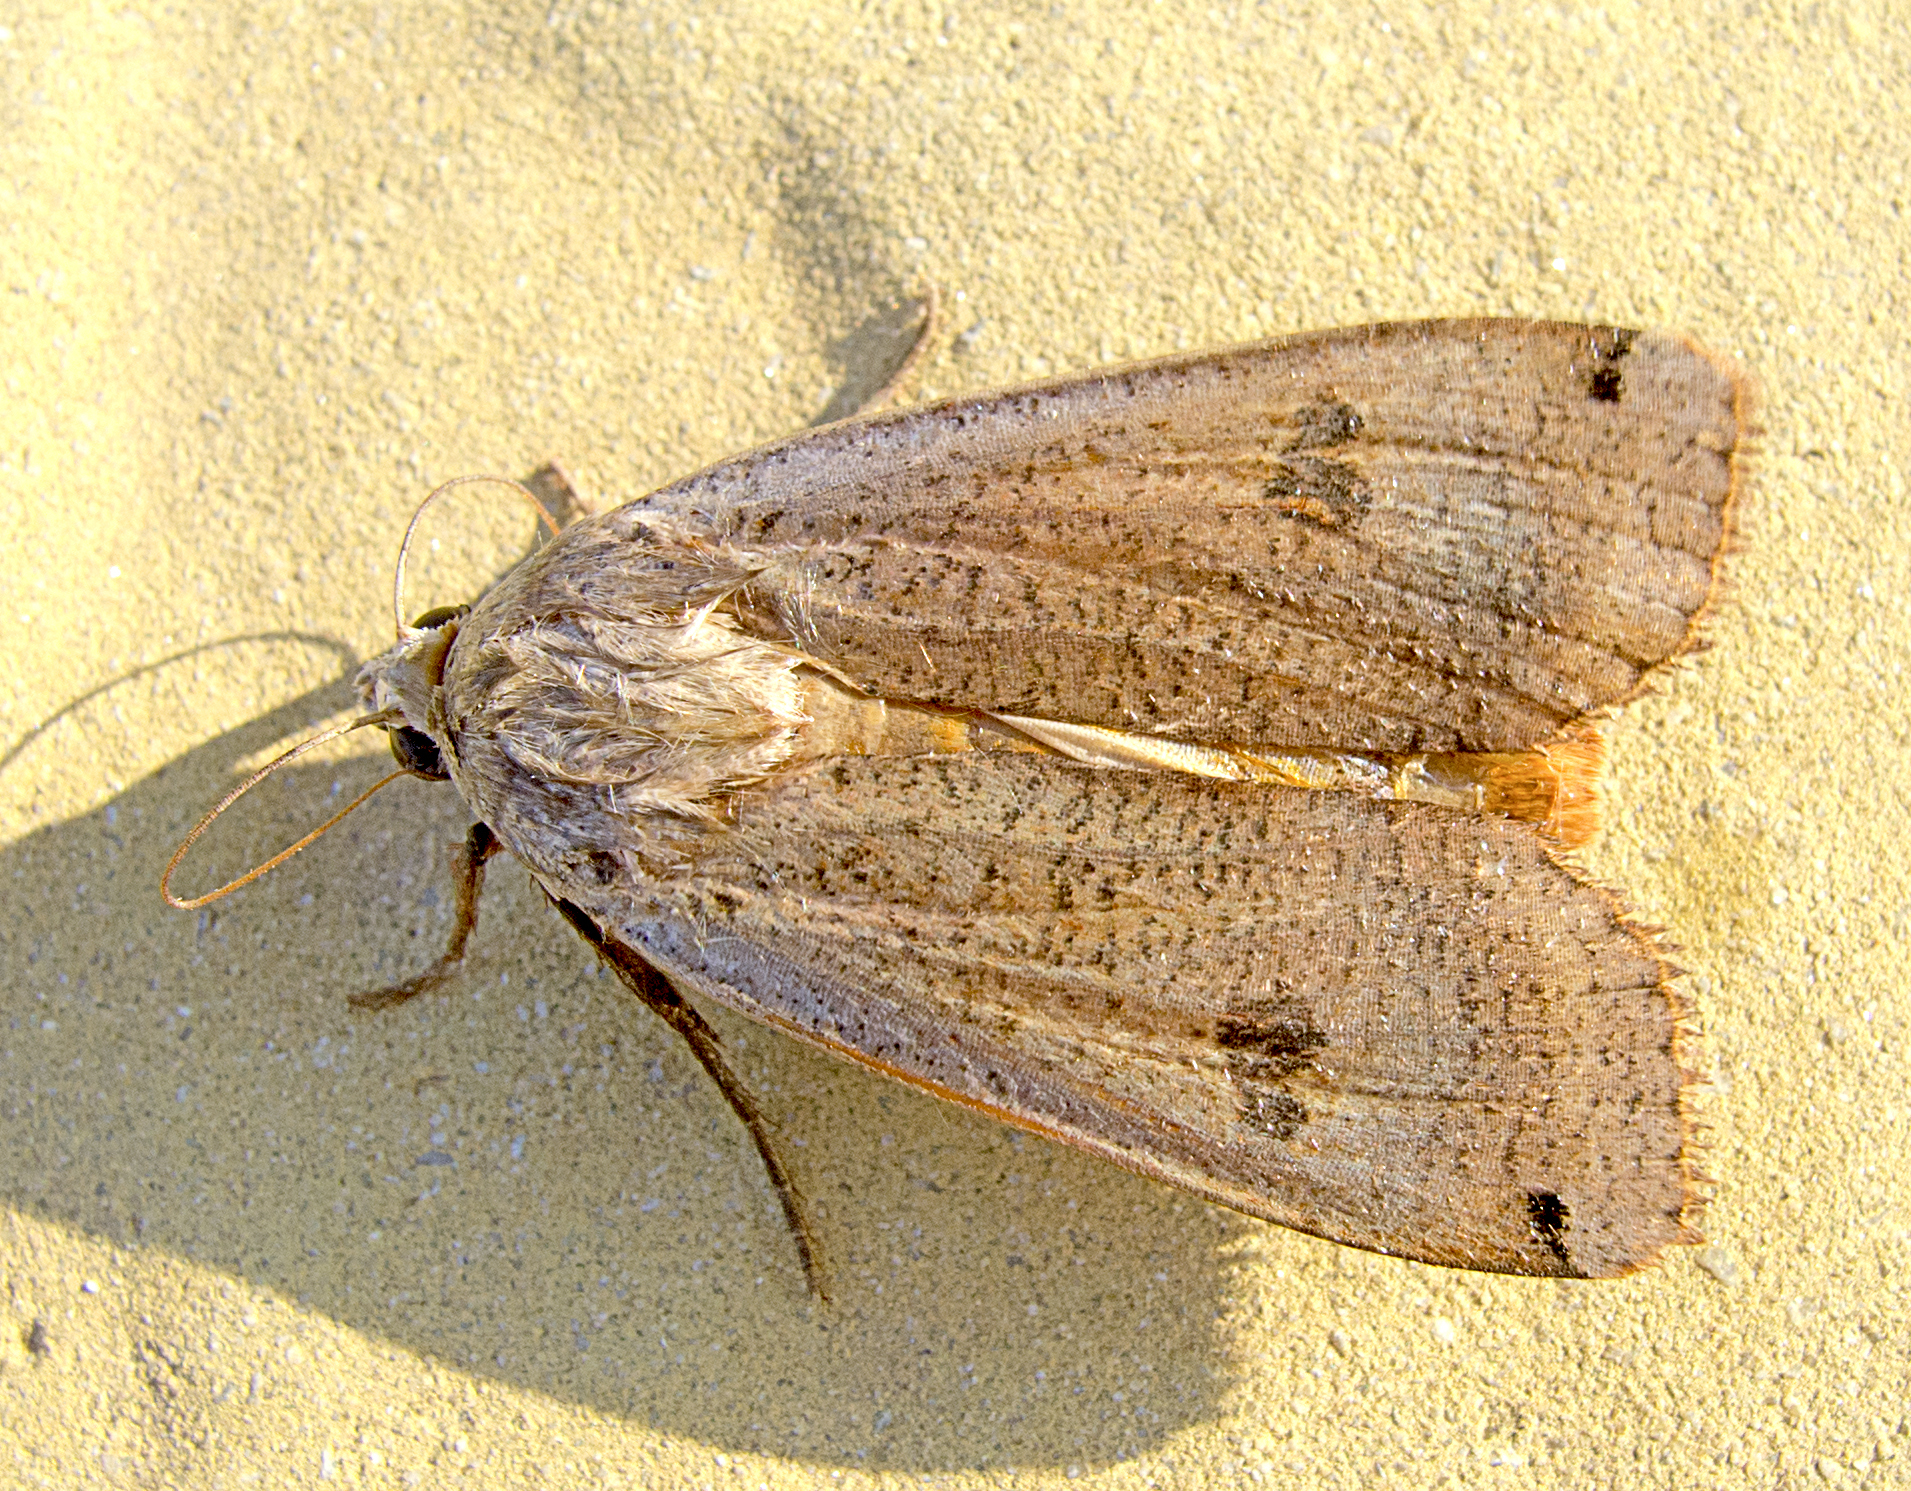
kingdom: Animalia
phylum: Arthropoda
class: Insecta
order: Lepidoptera
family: Noctuidae
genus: Noctua
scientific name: Noctua pronuba
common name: Large yellow underwing
